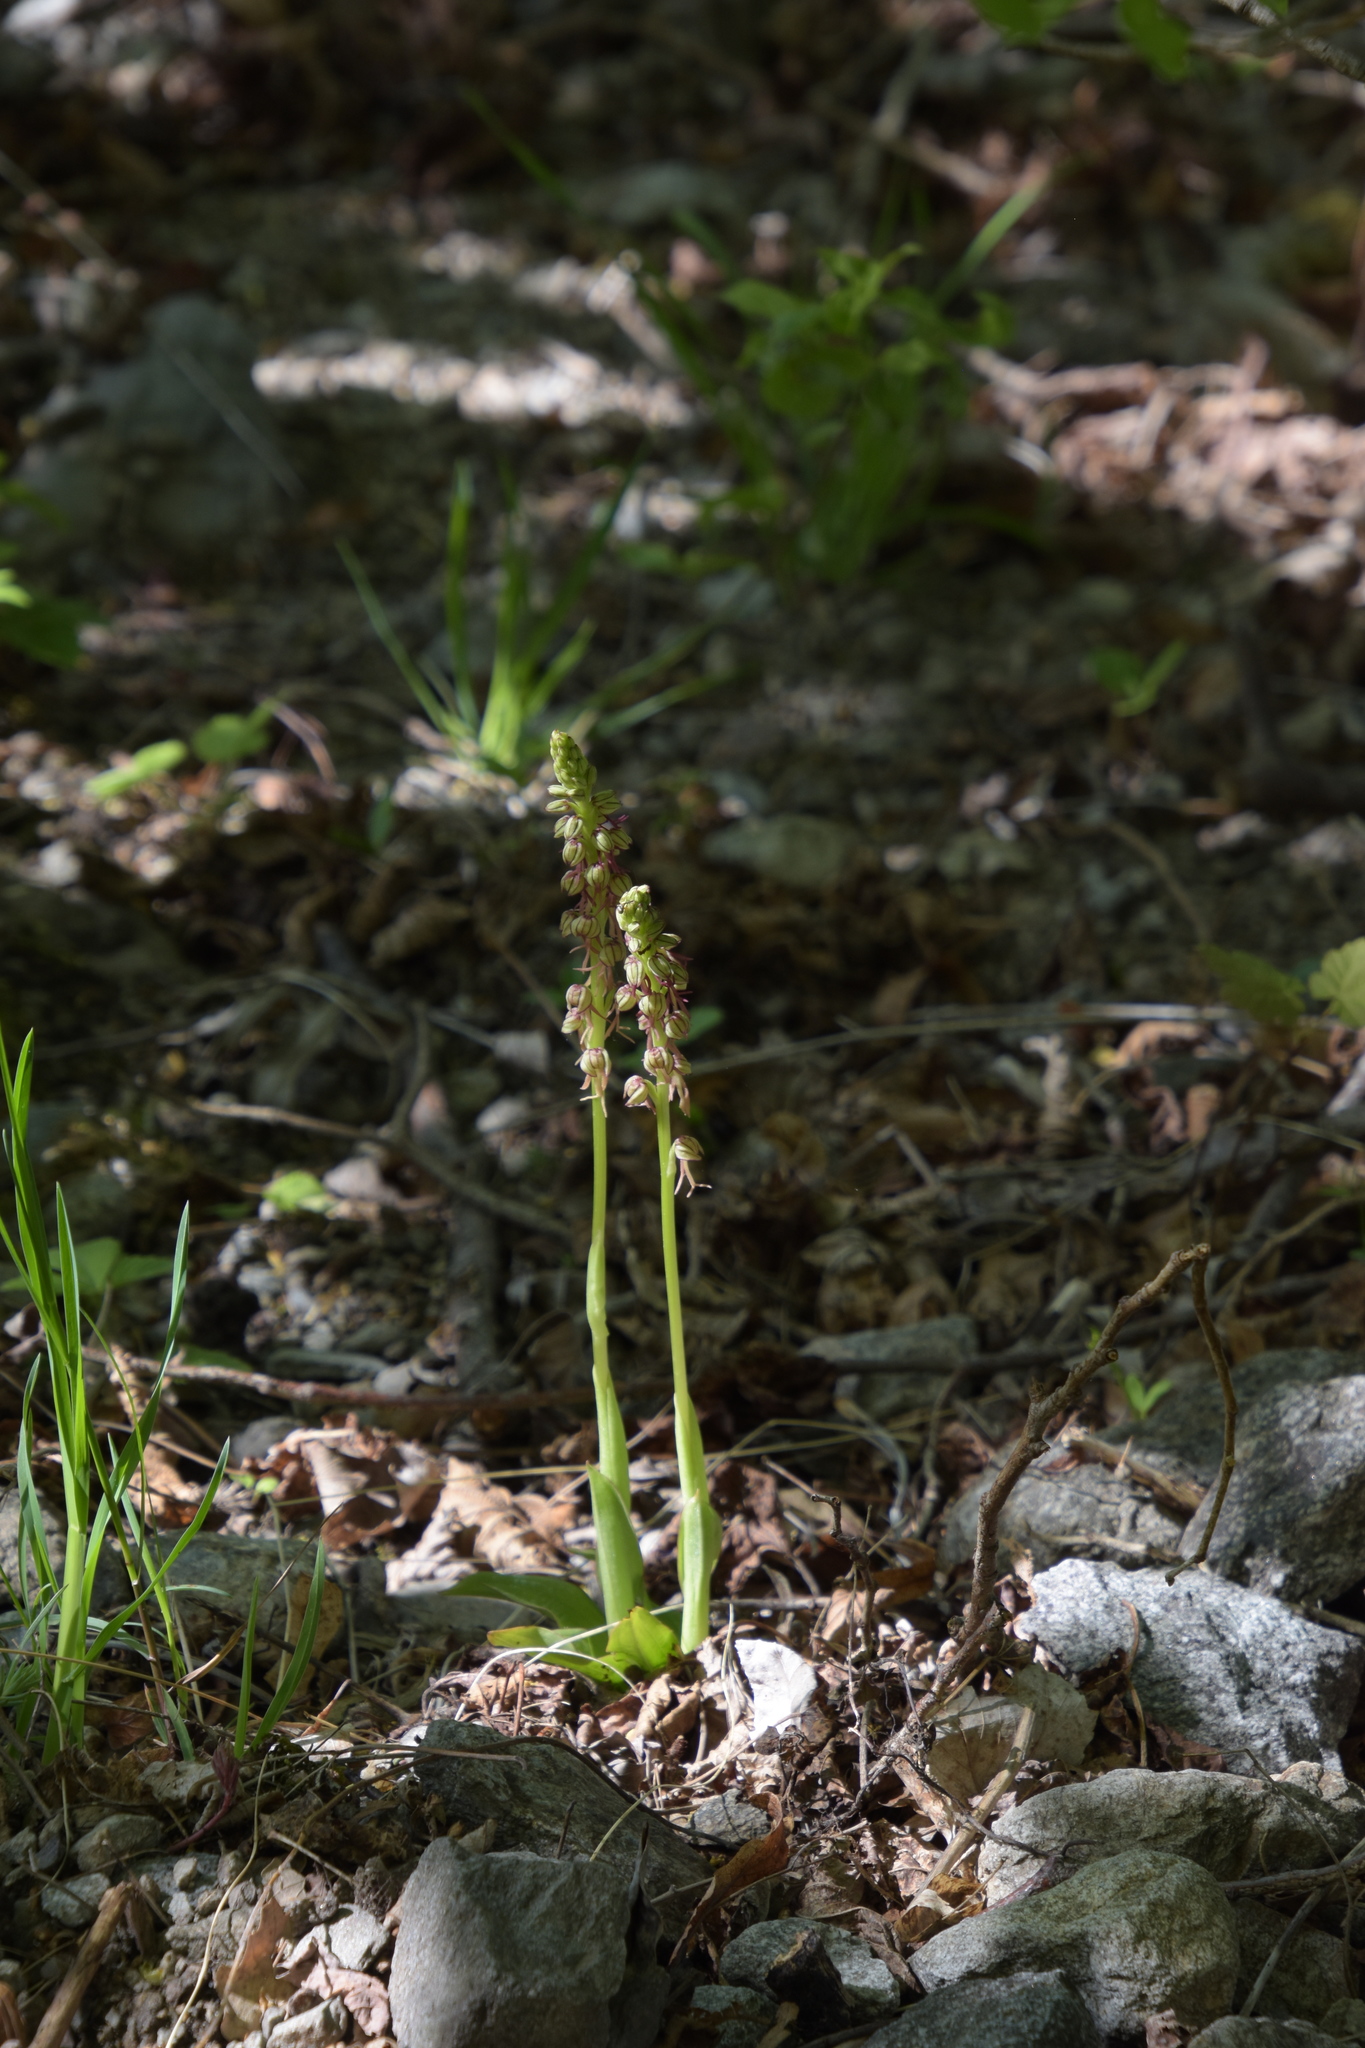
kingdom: Plantae
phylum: Tracheophyta
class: Liliopsida
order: Asparagales
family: Orchidaceae
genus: Orchis
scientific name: Orchis anthropophora
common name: Man orchid
